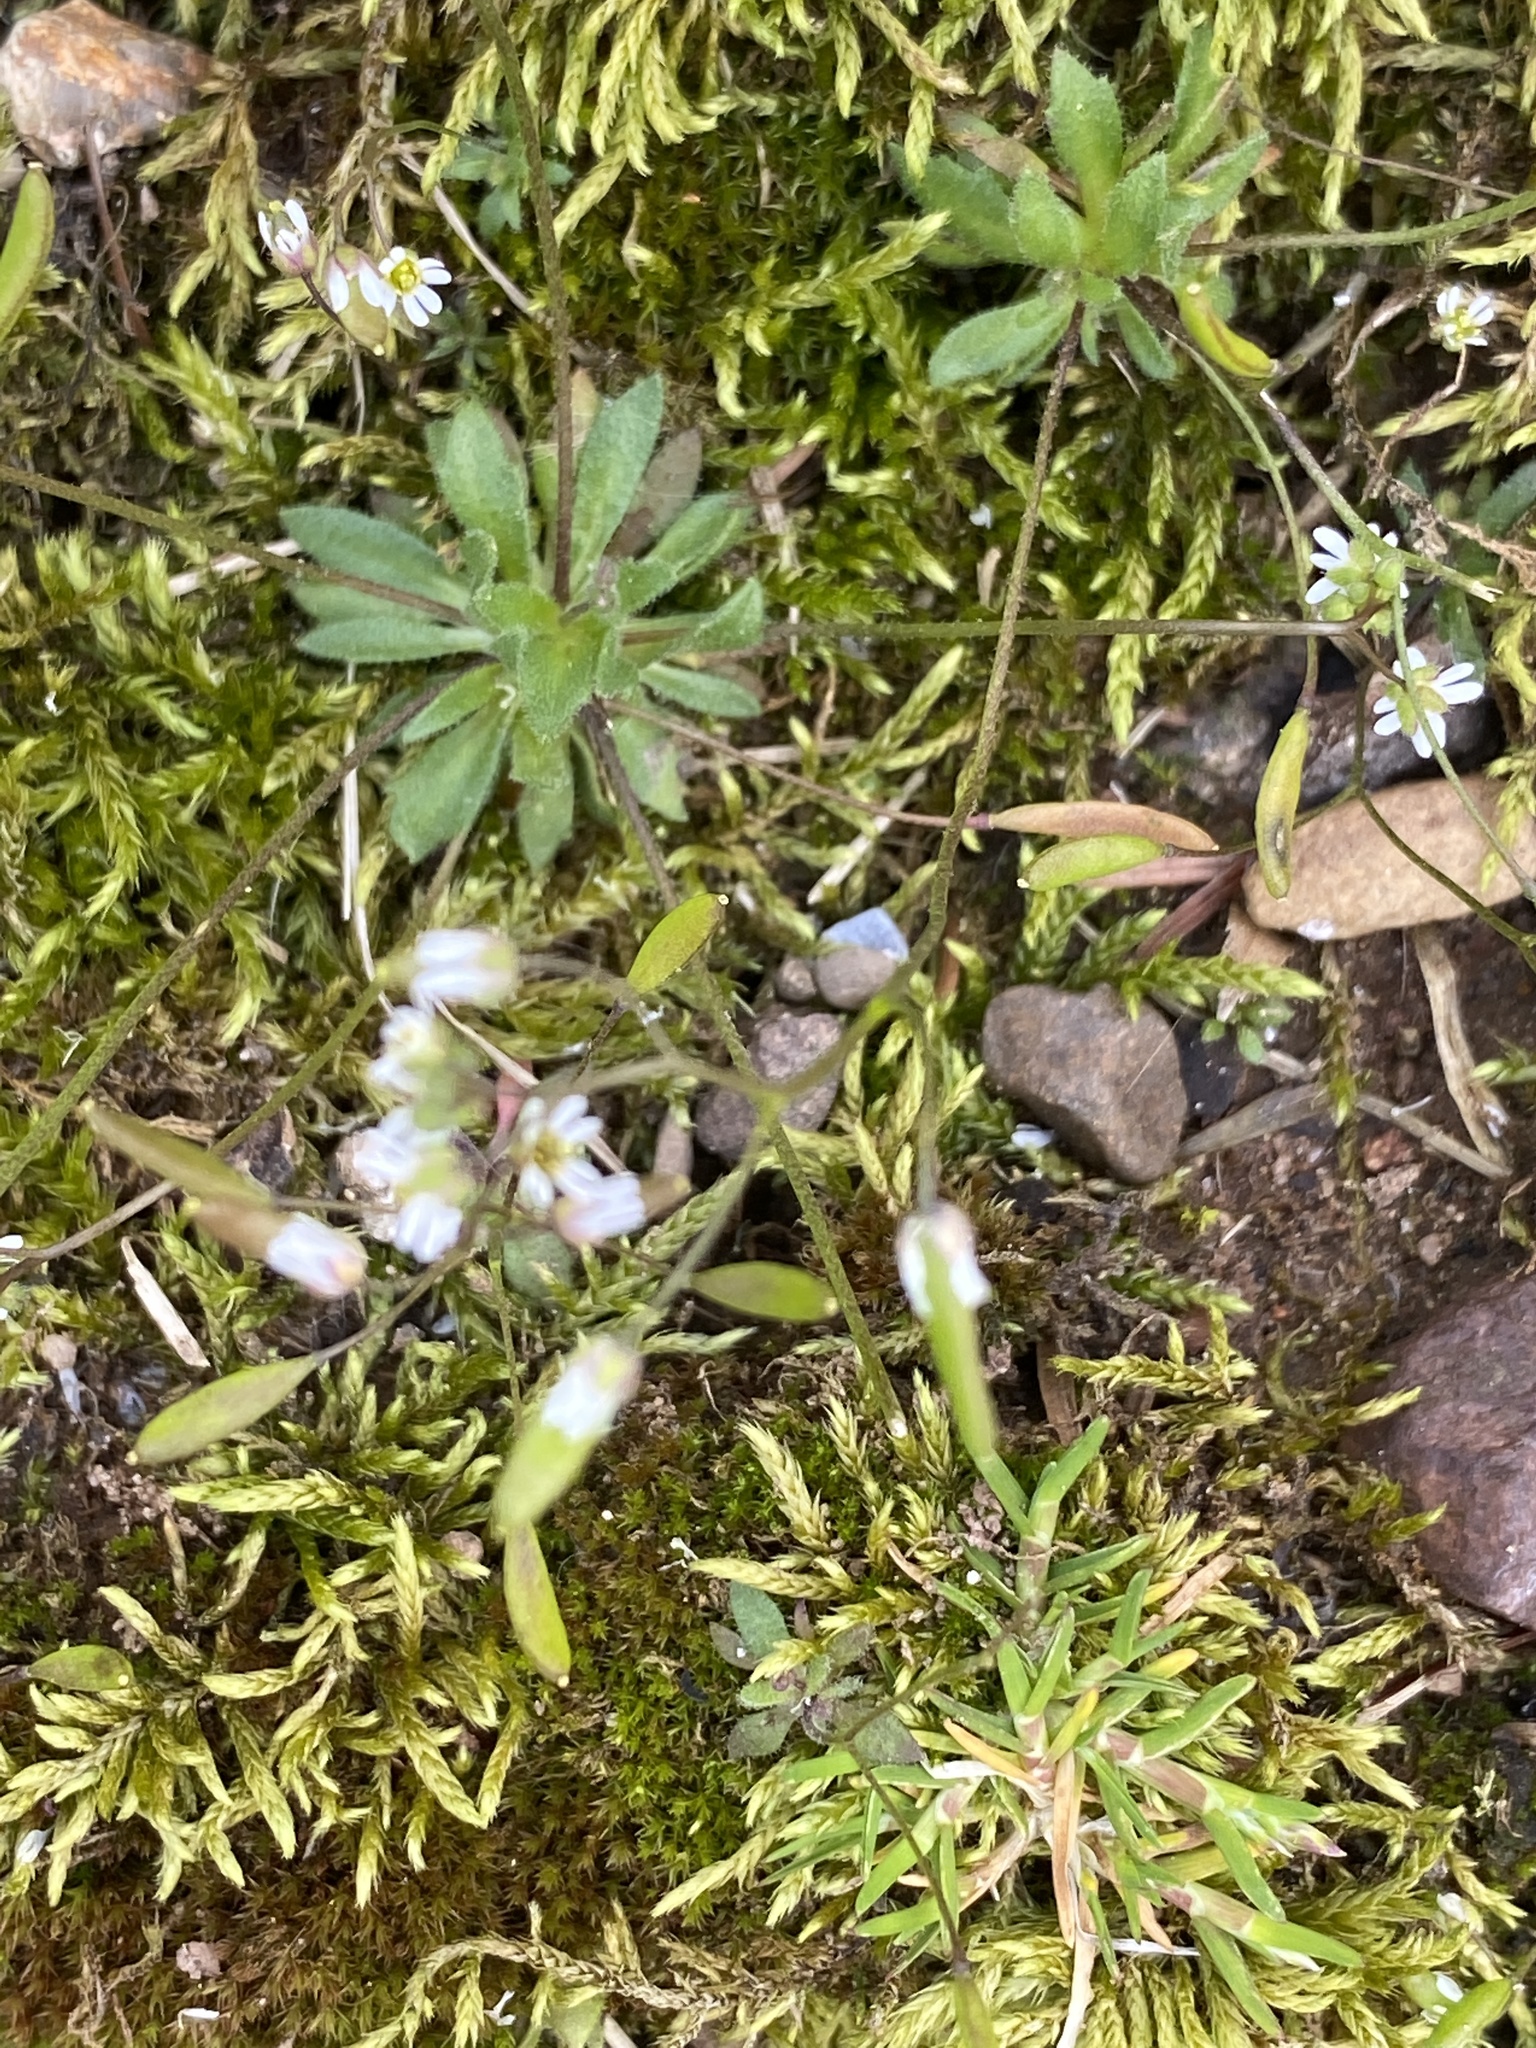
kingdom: Plantae
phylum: Tracheophyta
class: Magnoliopsida
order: Brassicales
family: Brassicaceae
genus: Draba
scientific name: Draba verna
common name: Spring draba
